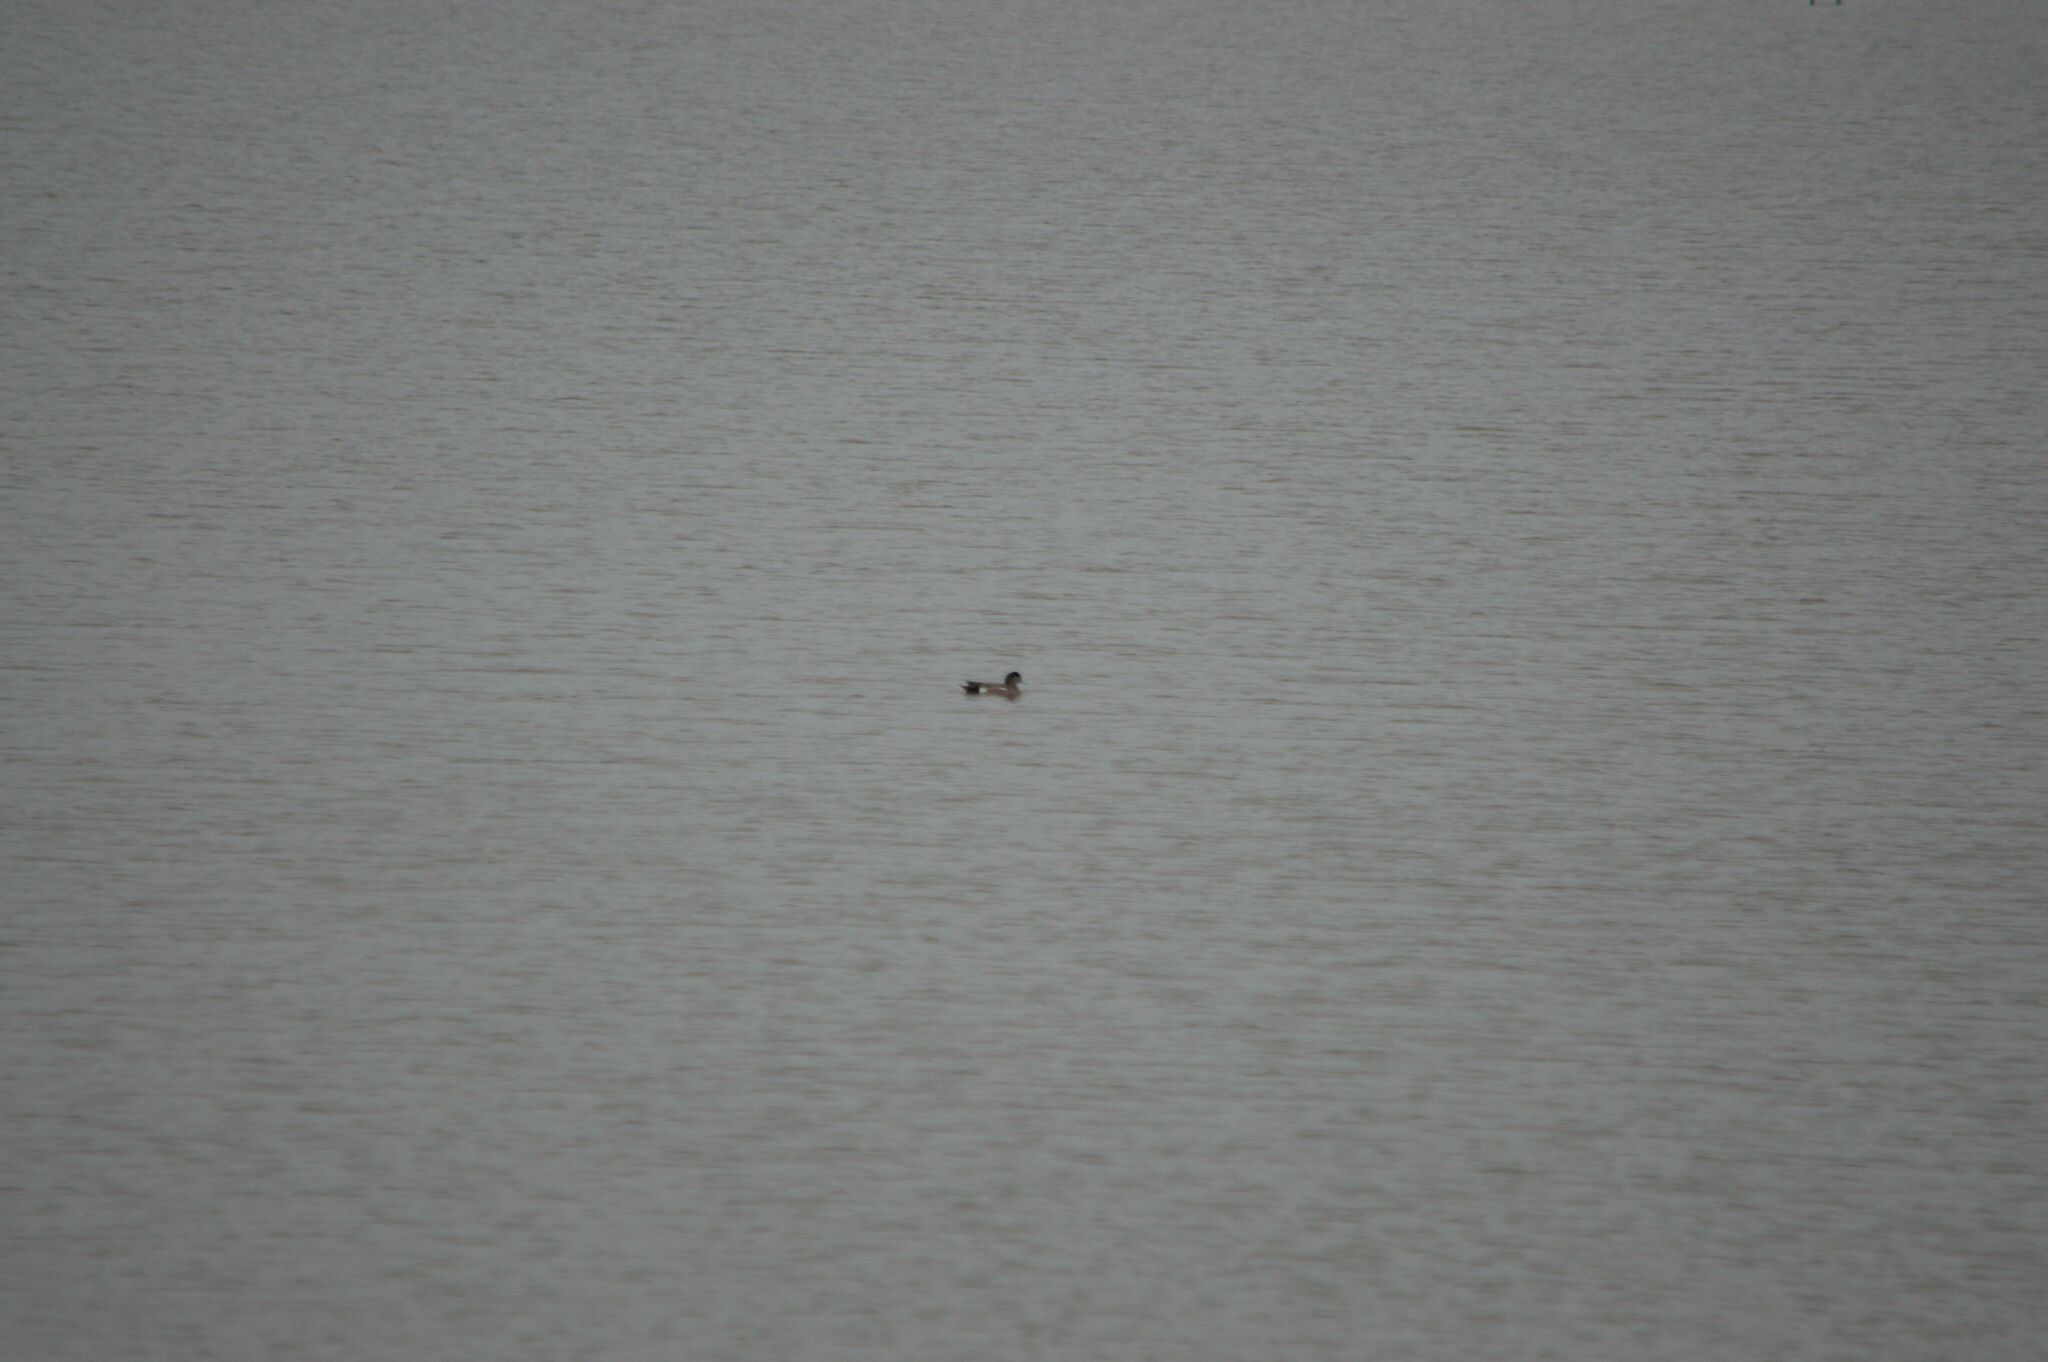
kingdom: Animalia
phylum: Chordata
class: Aves
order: Anseriformes
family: Anatidae
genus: Mareca
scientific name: Mareca americana
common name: American wigeon
